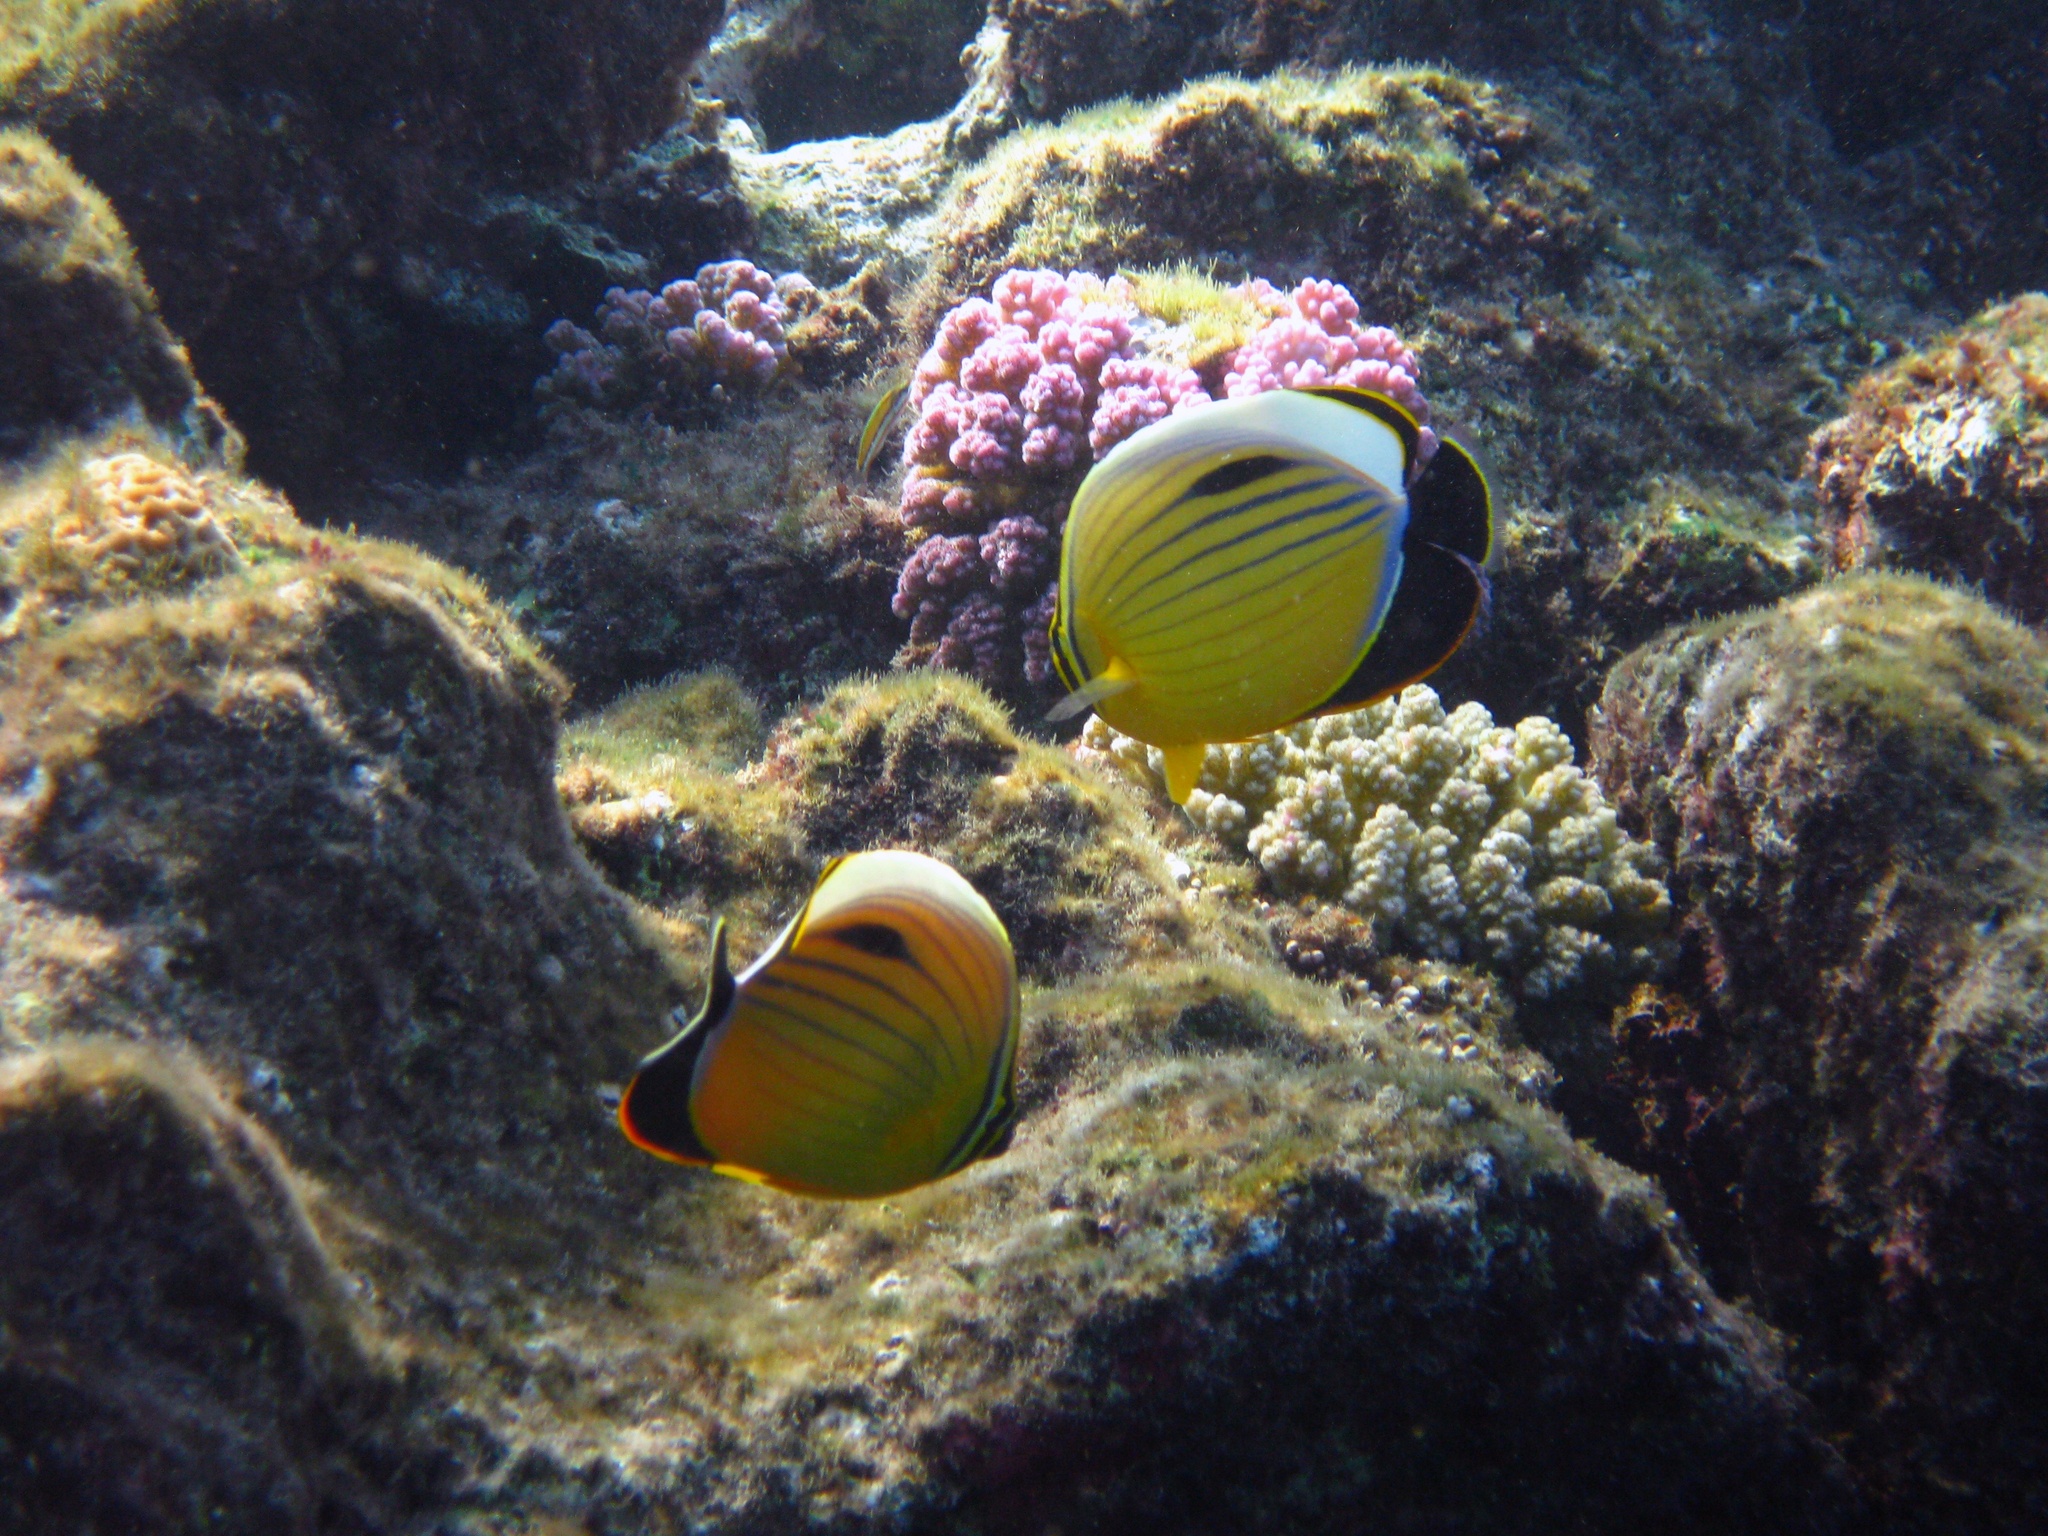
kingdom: Animalia
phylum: Chordata
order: Perciformes
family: Chaetodontidae
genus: Chaetodon
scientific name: Chaetodon austriacus
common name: Exquisite butterflyfish
